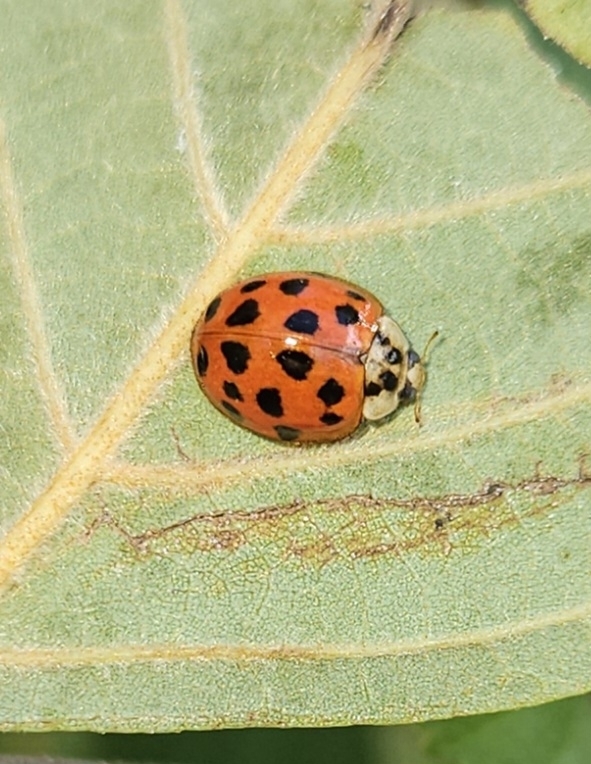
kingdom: Animalia
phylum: Arthropoda
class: Insecta
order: Coleoptera
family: Coccinellidae
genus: Harmonia
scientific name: Harmonia axyridis
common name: Harlequin ladybird
